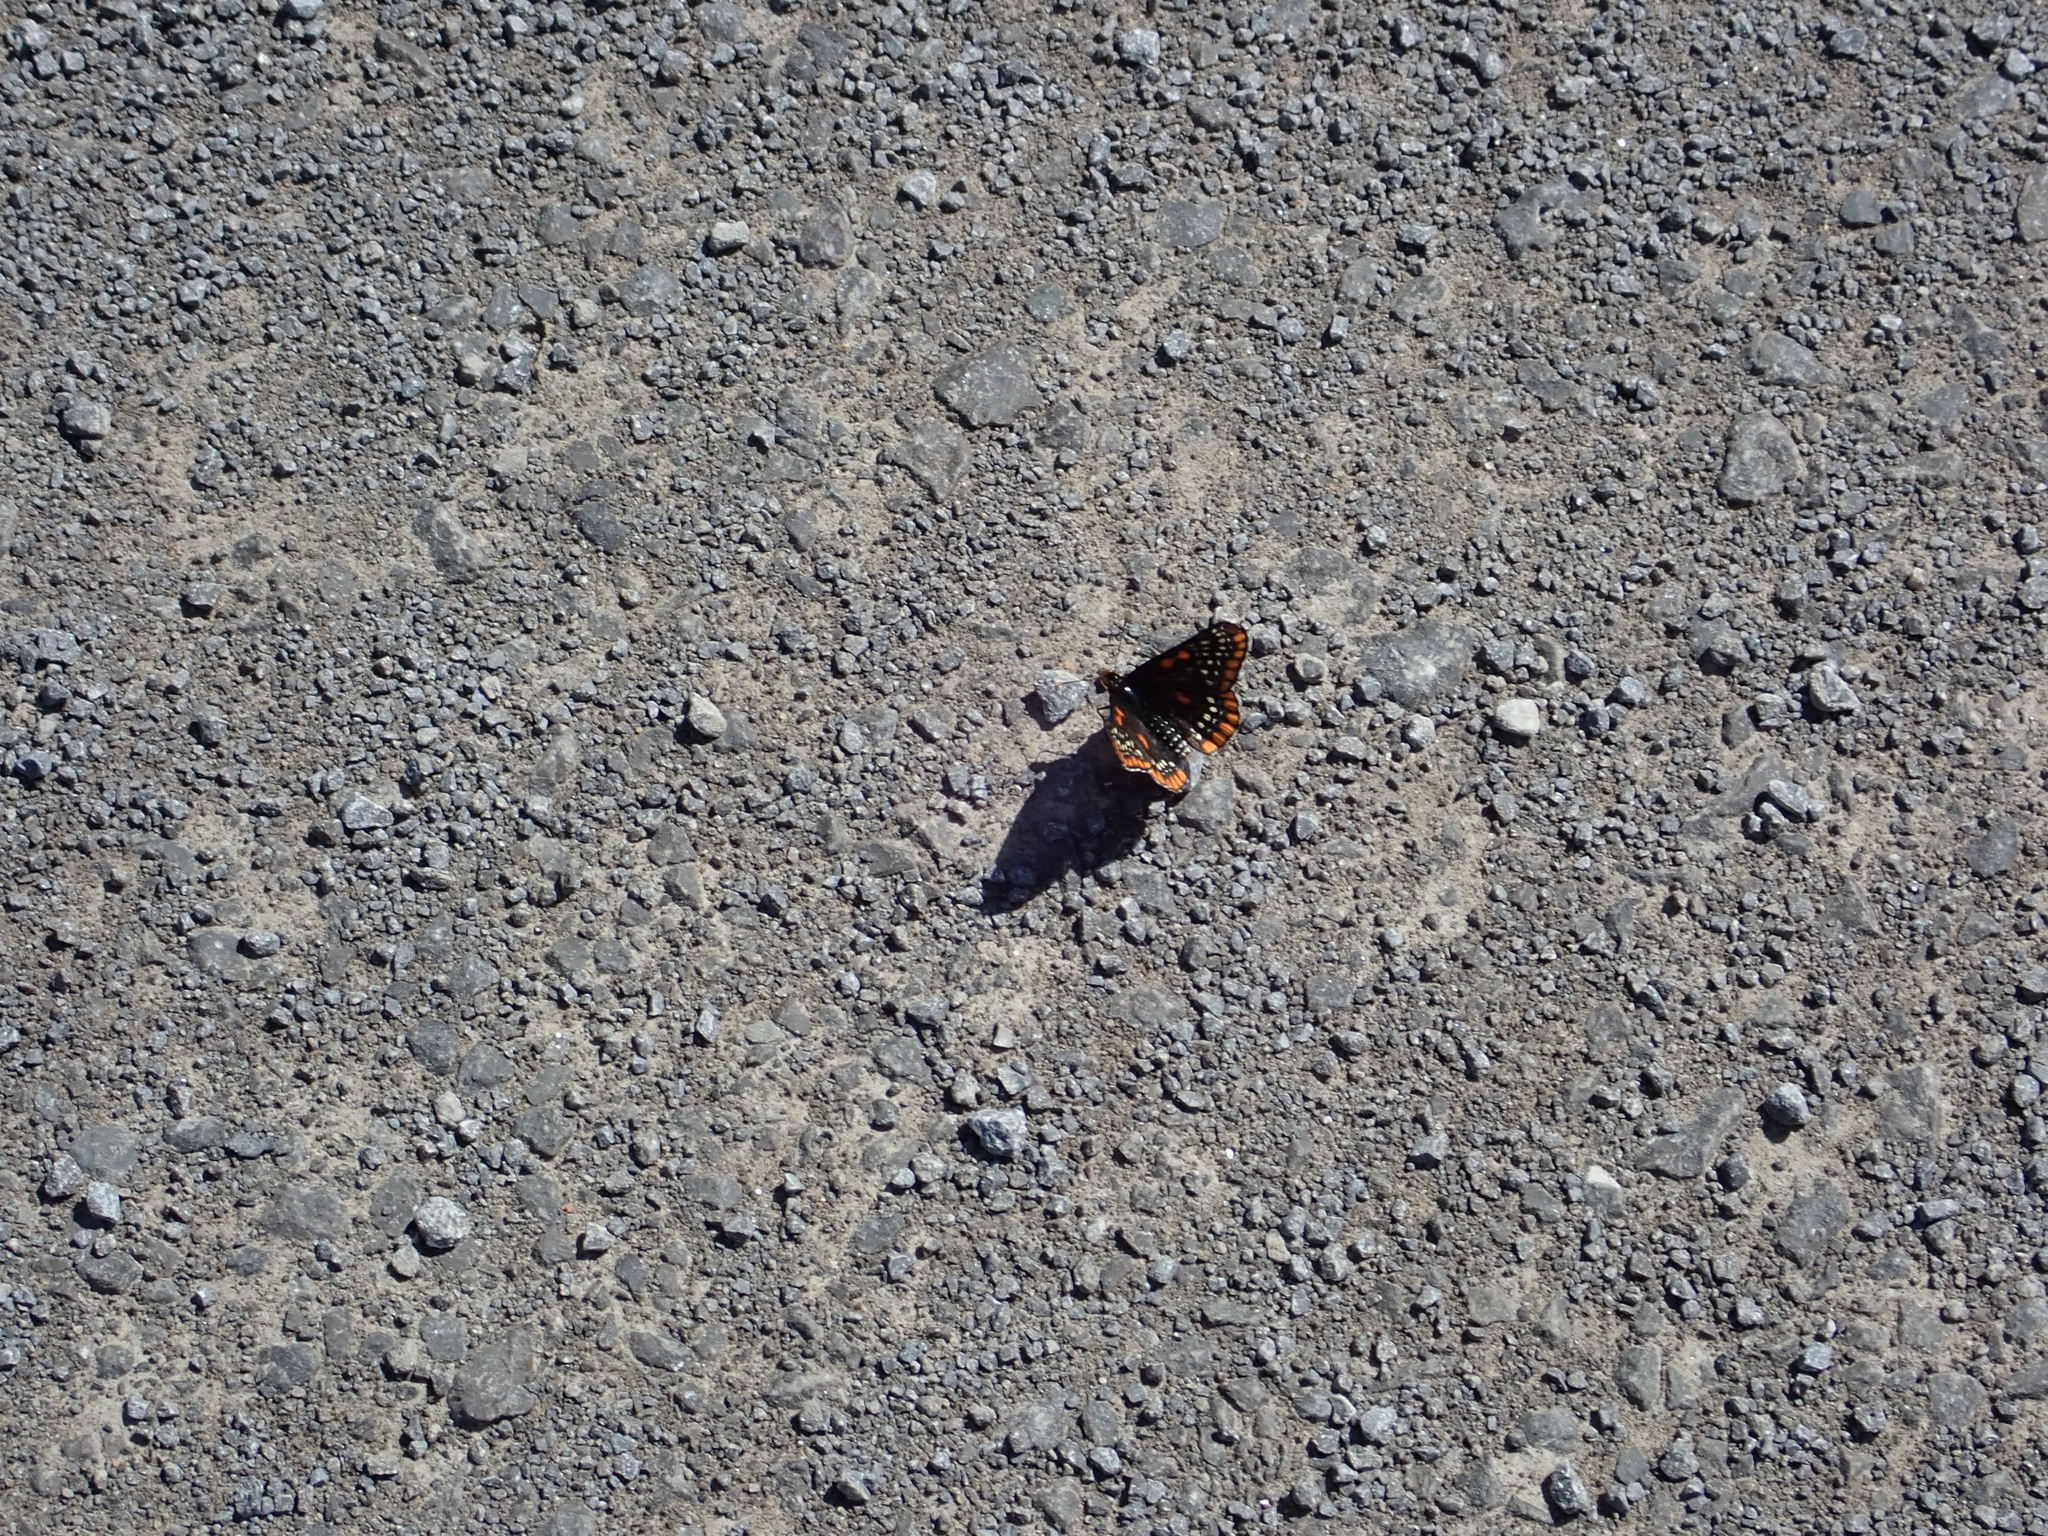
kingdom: Animalia
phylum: Arthropoda
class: Insecta
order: Lepidoptera
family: Nymphalidae
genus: Euphydryas
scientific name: Euphydryas phaeton
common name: Baltimore checkerspot
